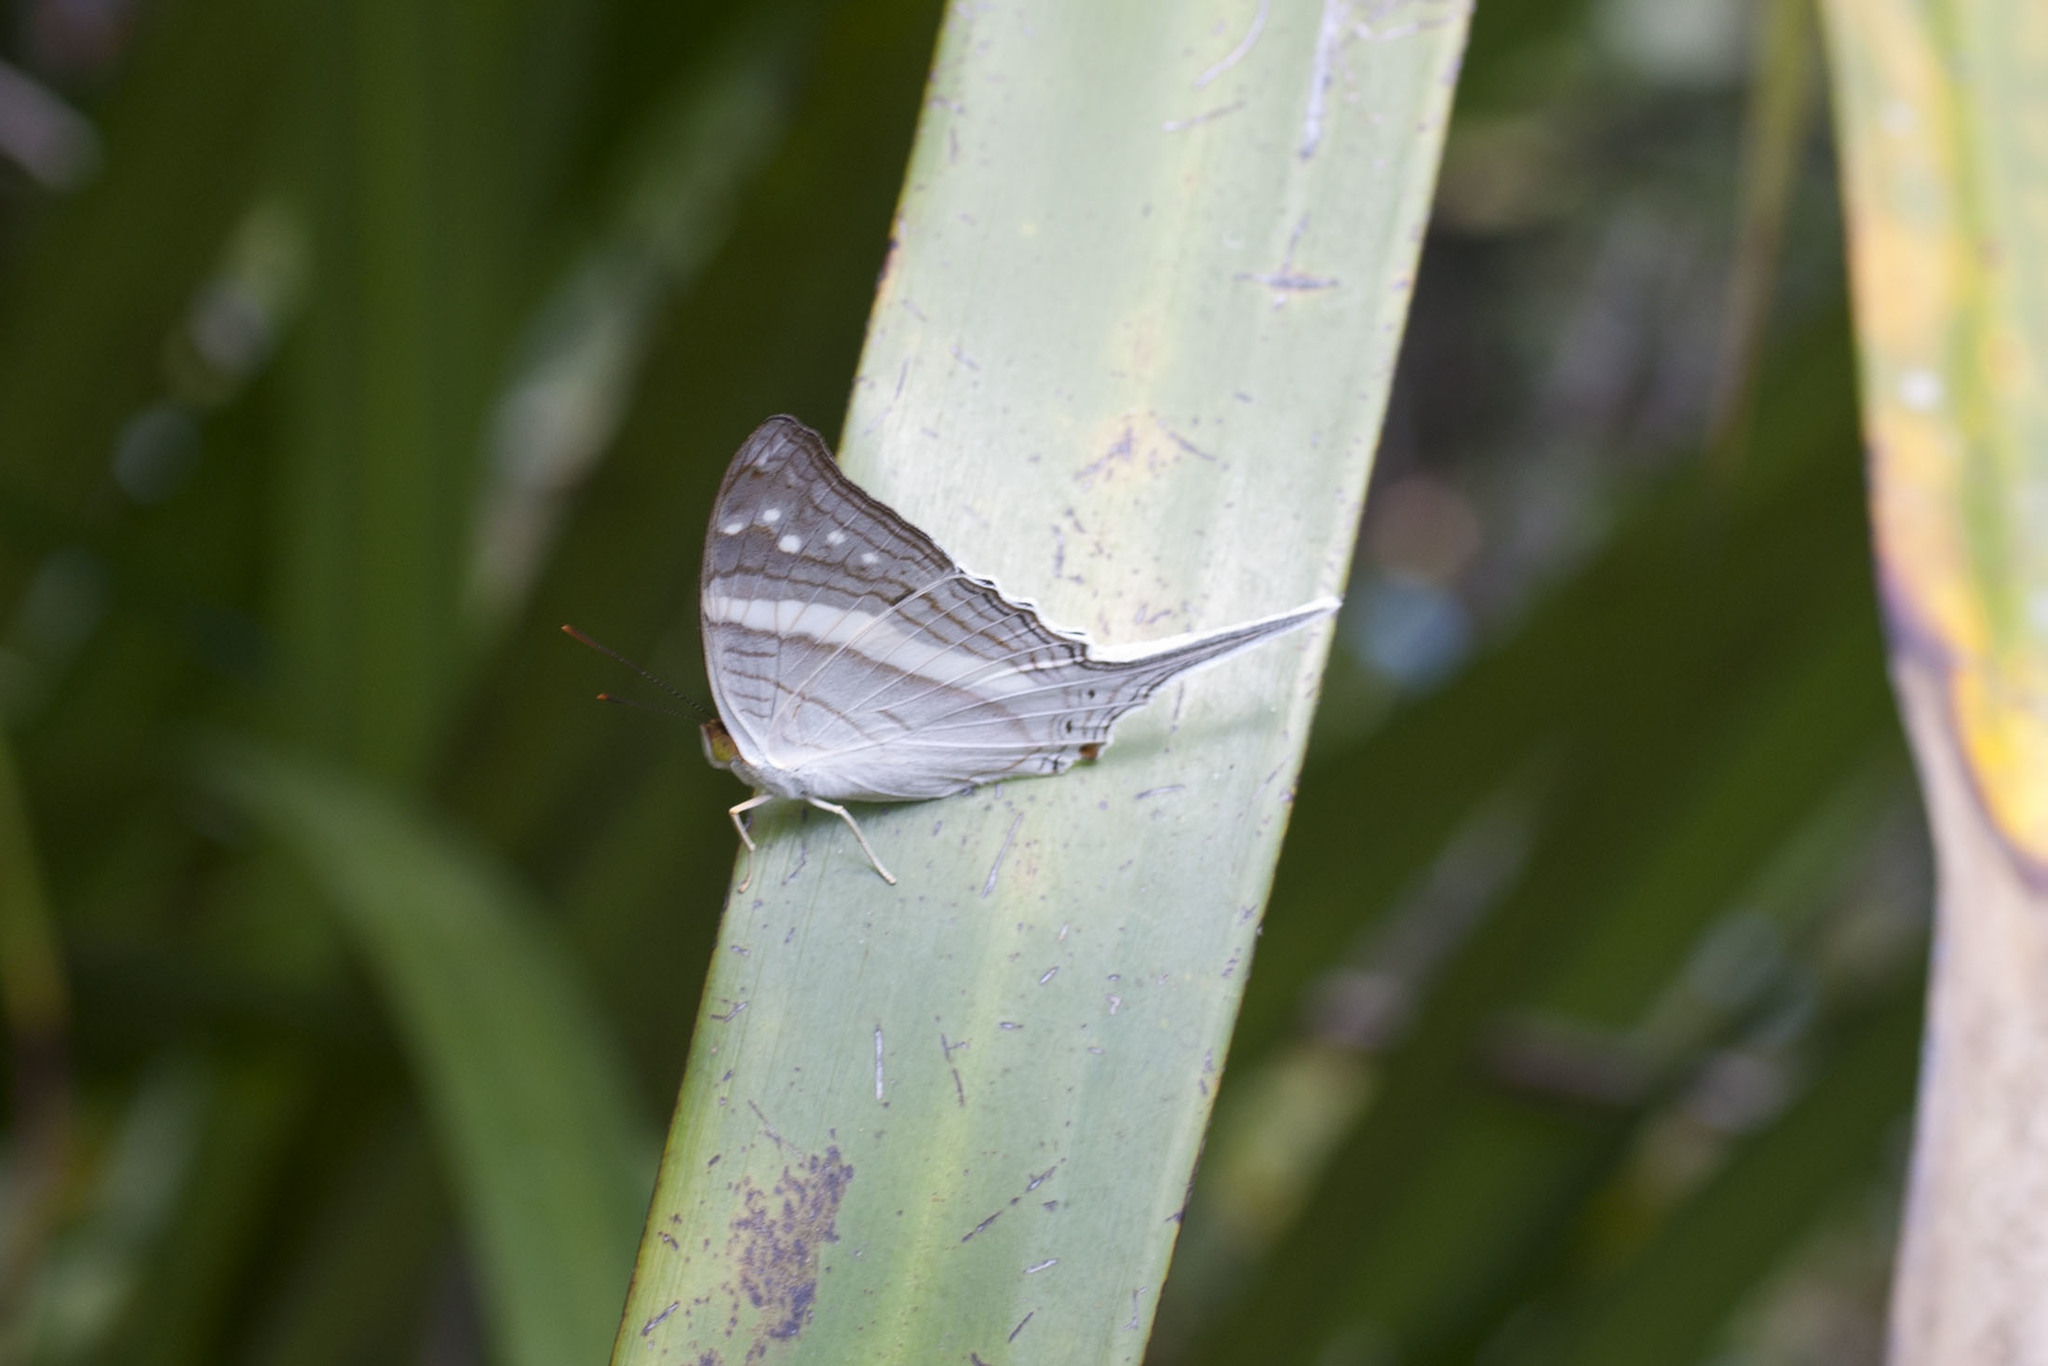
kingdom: Animalia
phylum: Arthropoda
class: Insecta
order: Lepidoptera
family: Nymphalidae
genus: Marpesia
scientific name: Marpesia crethon
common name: Crethon daggerwing
